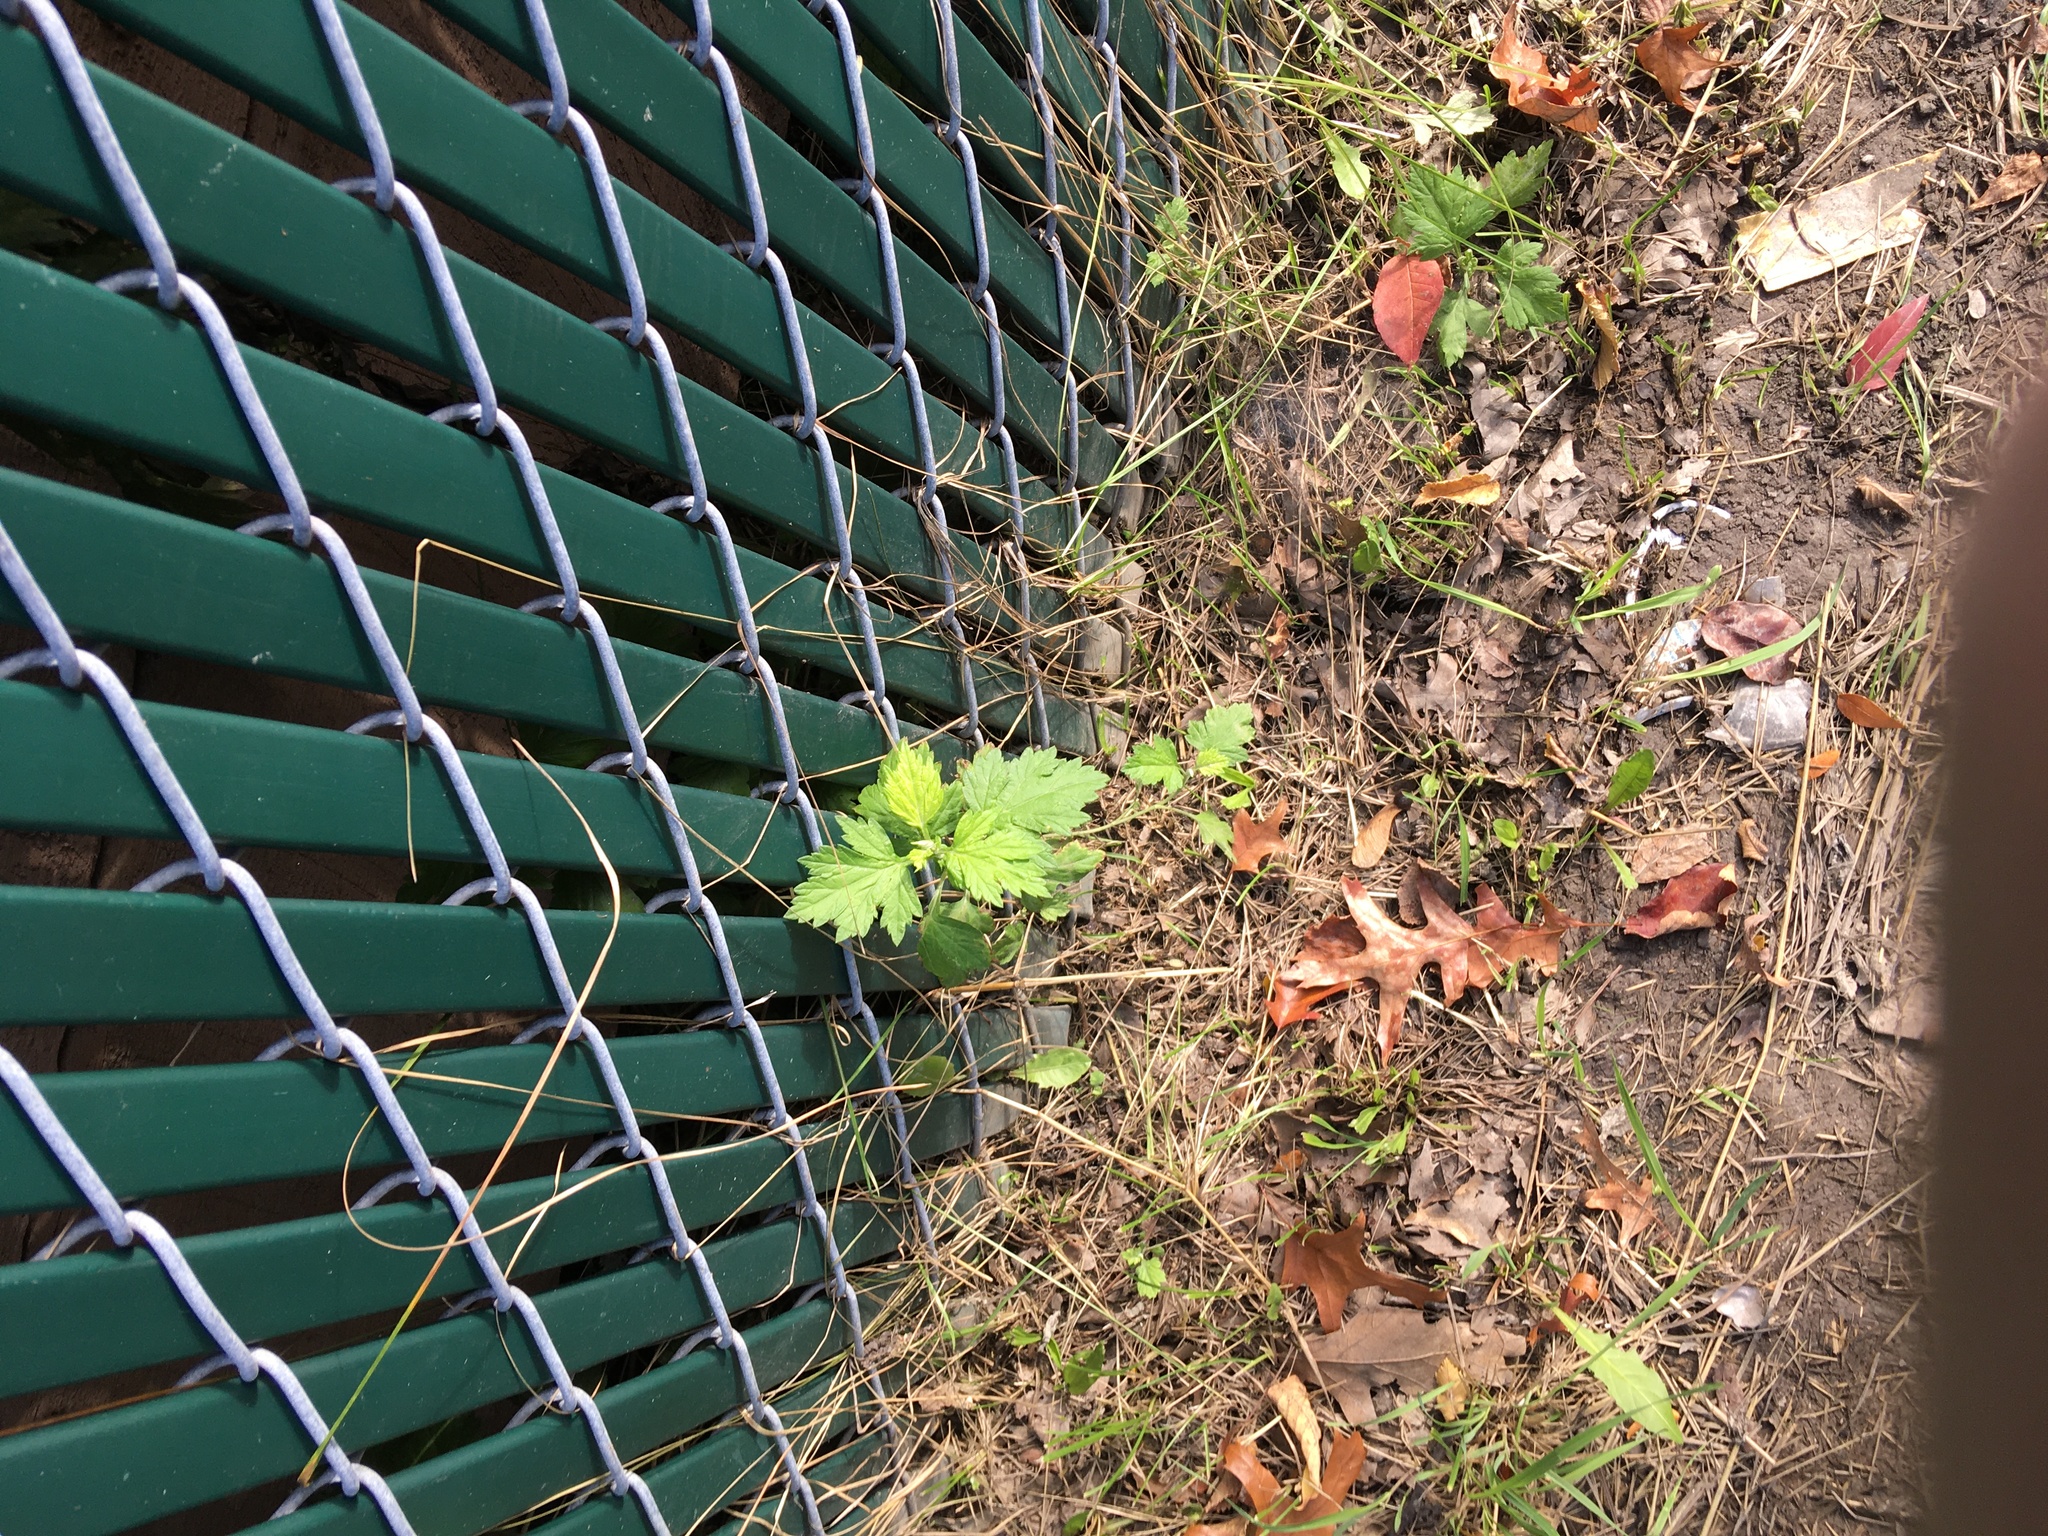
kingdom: Plantae
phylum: Tracheophyta
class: Magnoliopsida
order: Asterales
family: Asteraceae
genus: Artemisia
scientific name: Artemisia vulgaris
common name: Mugwort
